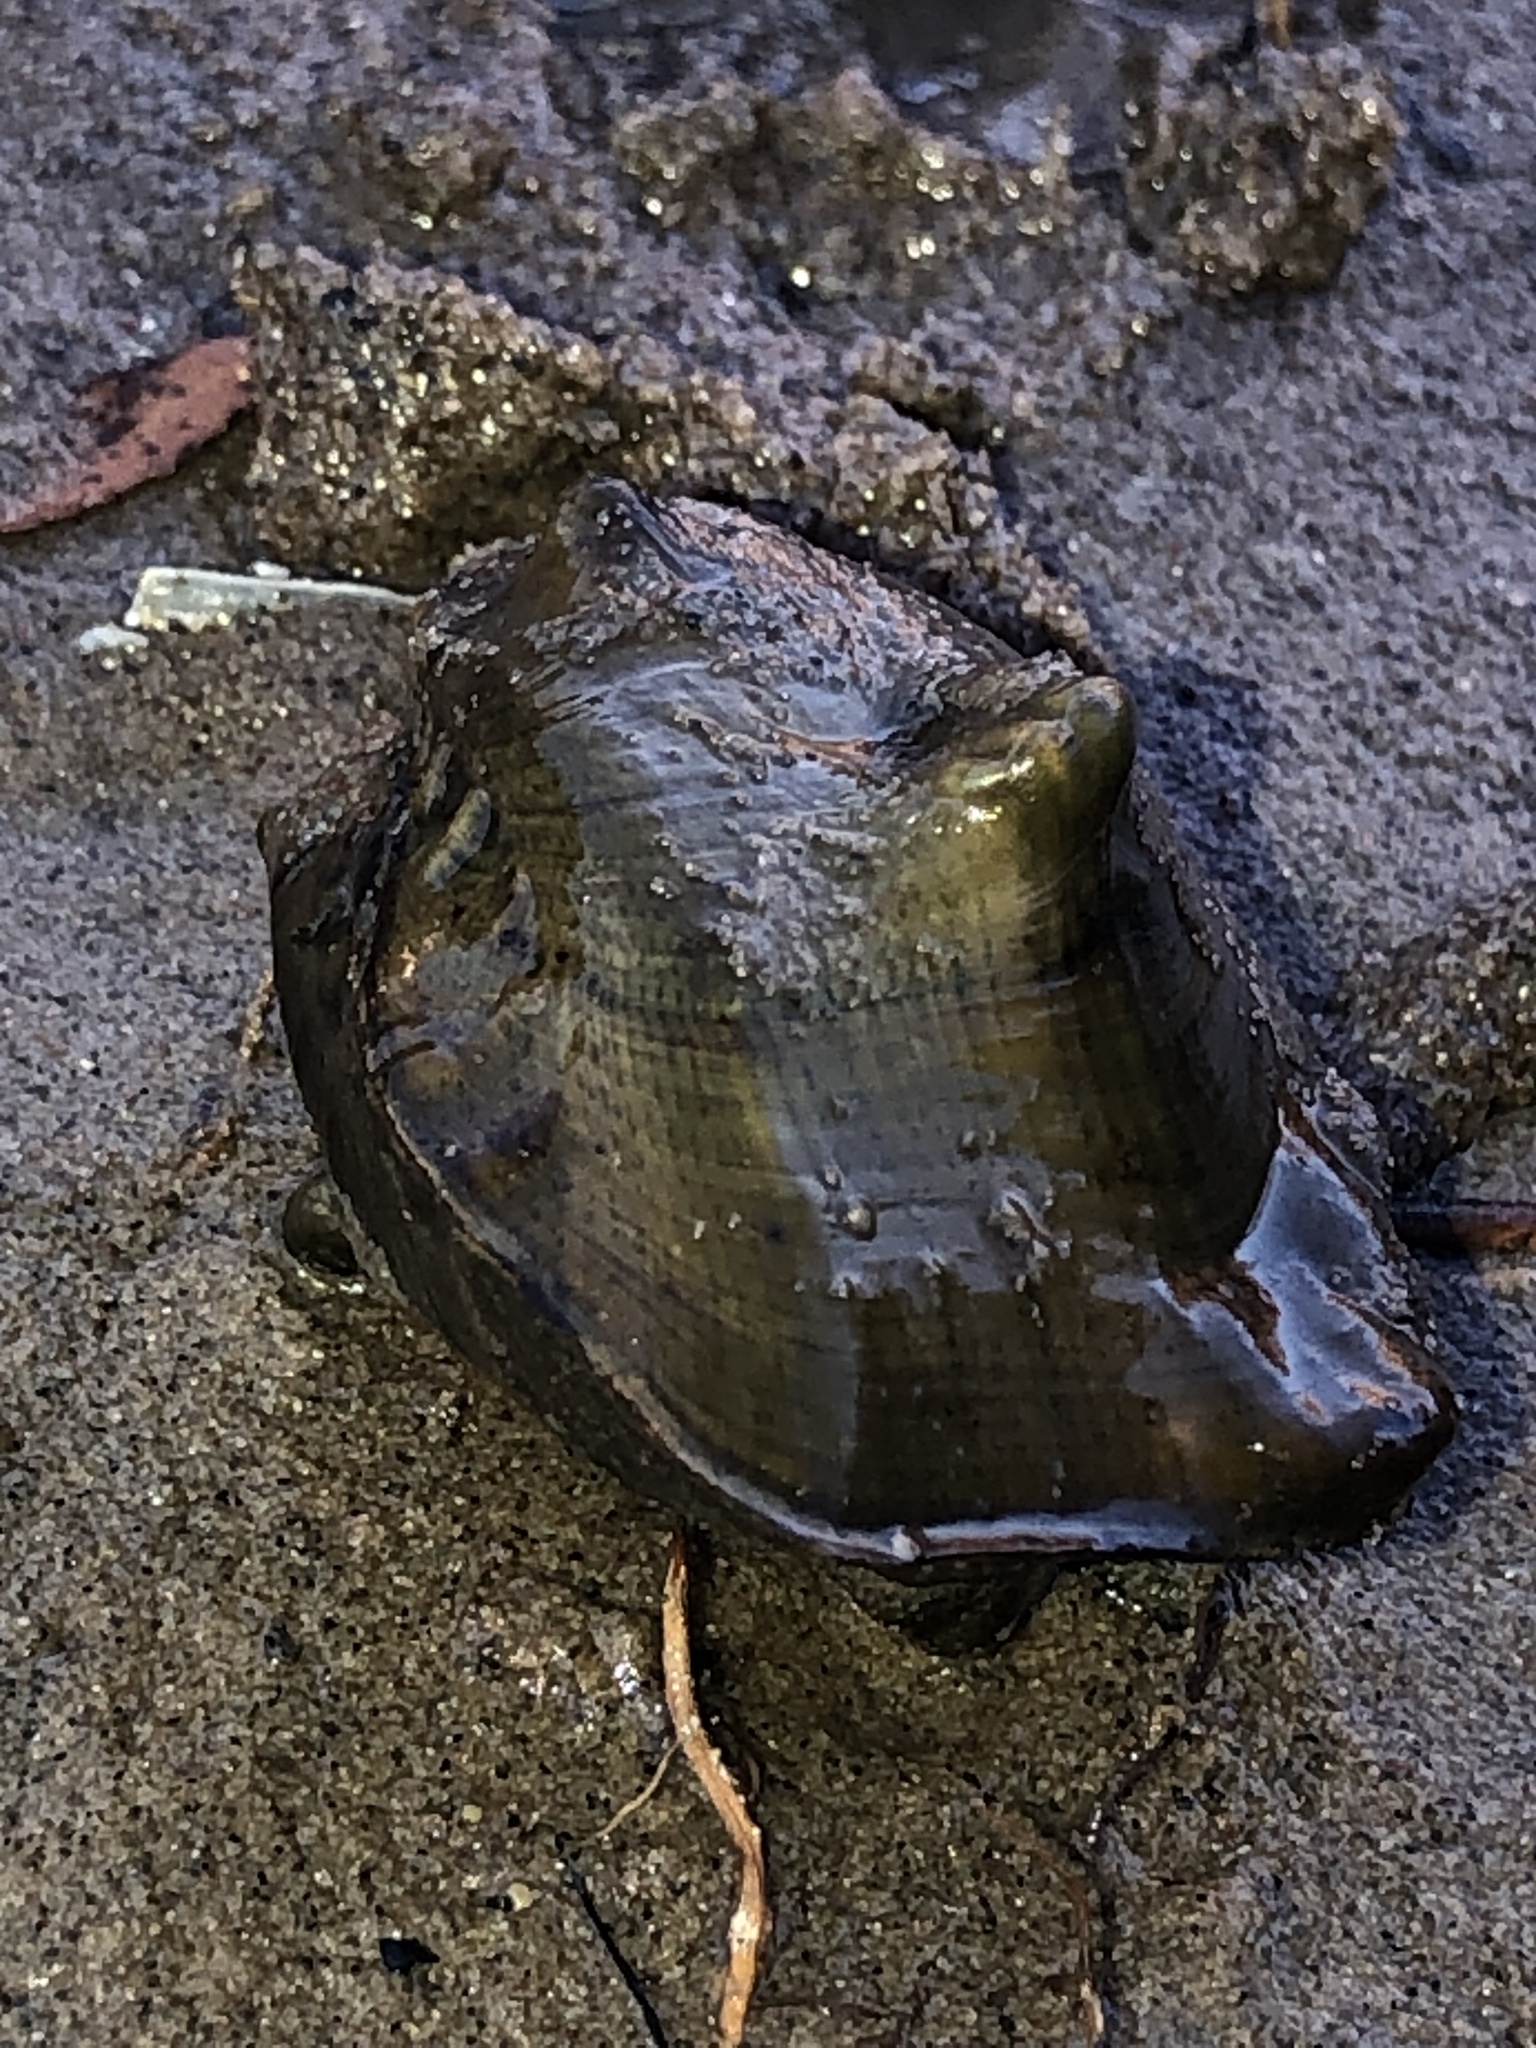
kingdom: Animalia
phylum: Mollusca
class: Bivalvia
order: Unionida
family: Unionidae
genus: Obliquaria
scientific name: Obliquaria reflexa
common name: Threehorn wartyback
